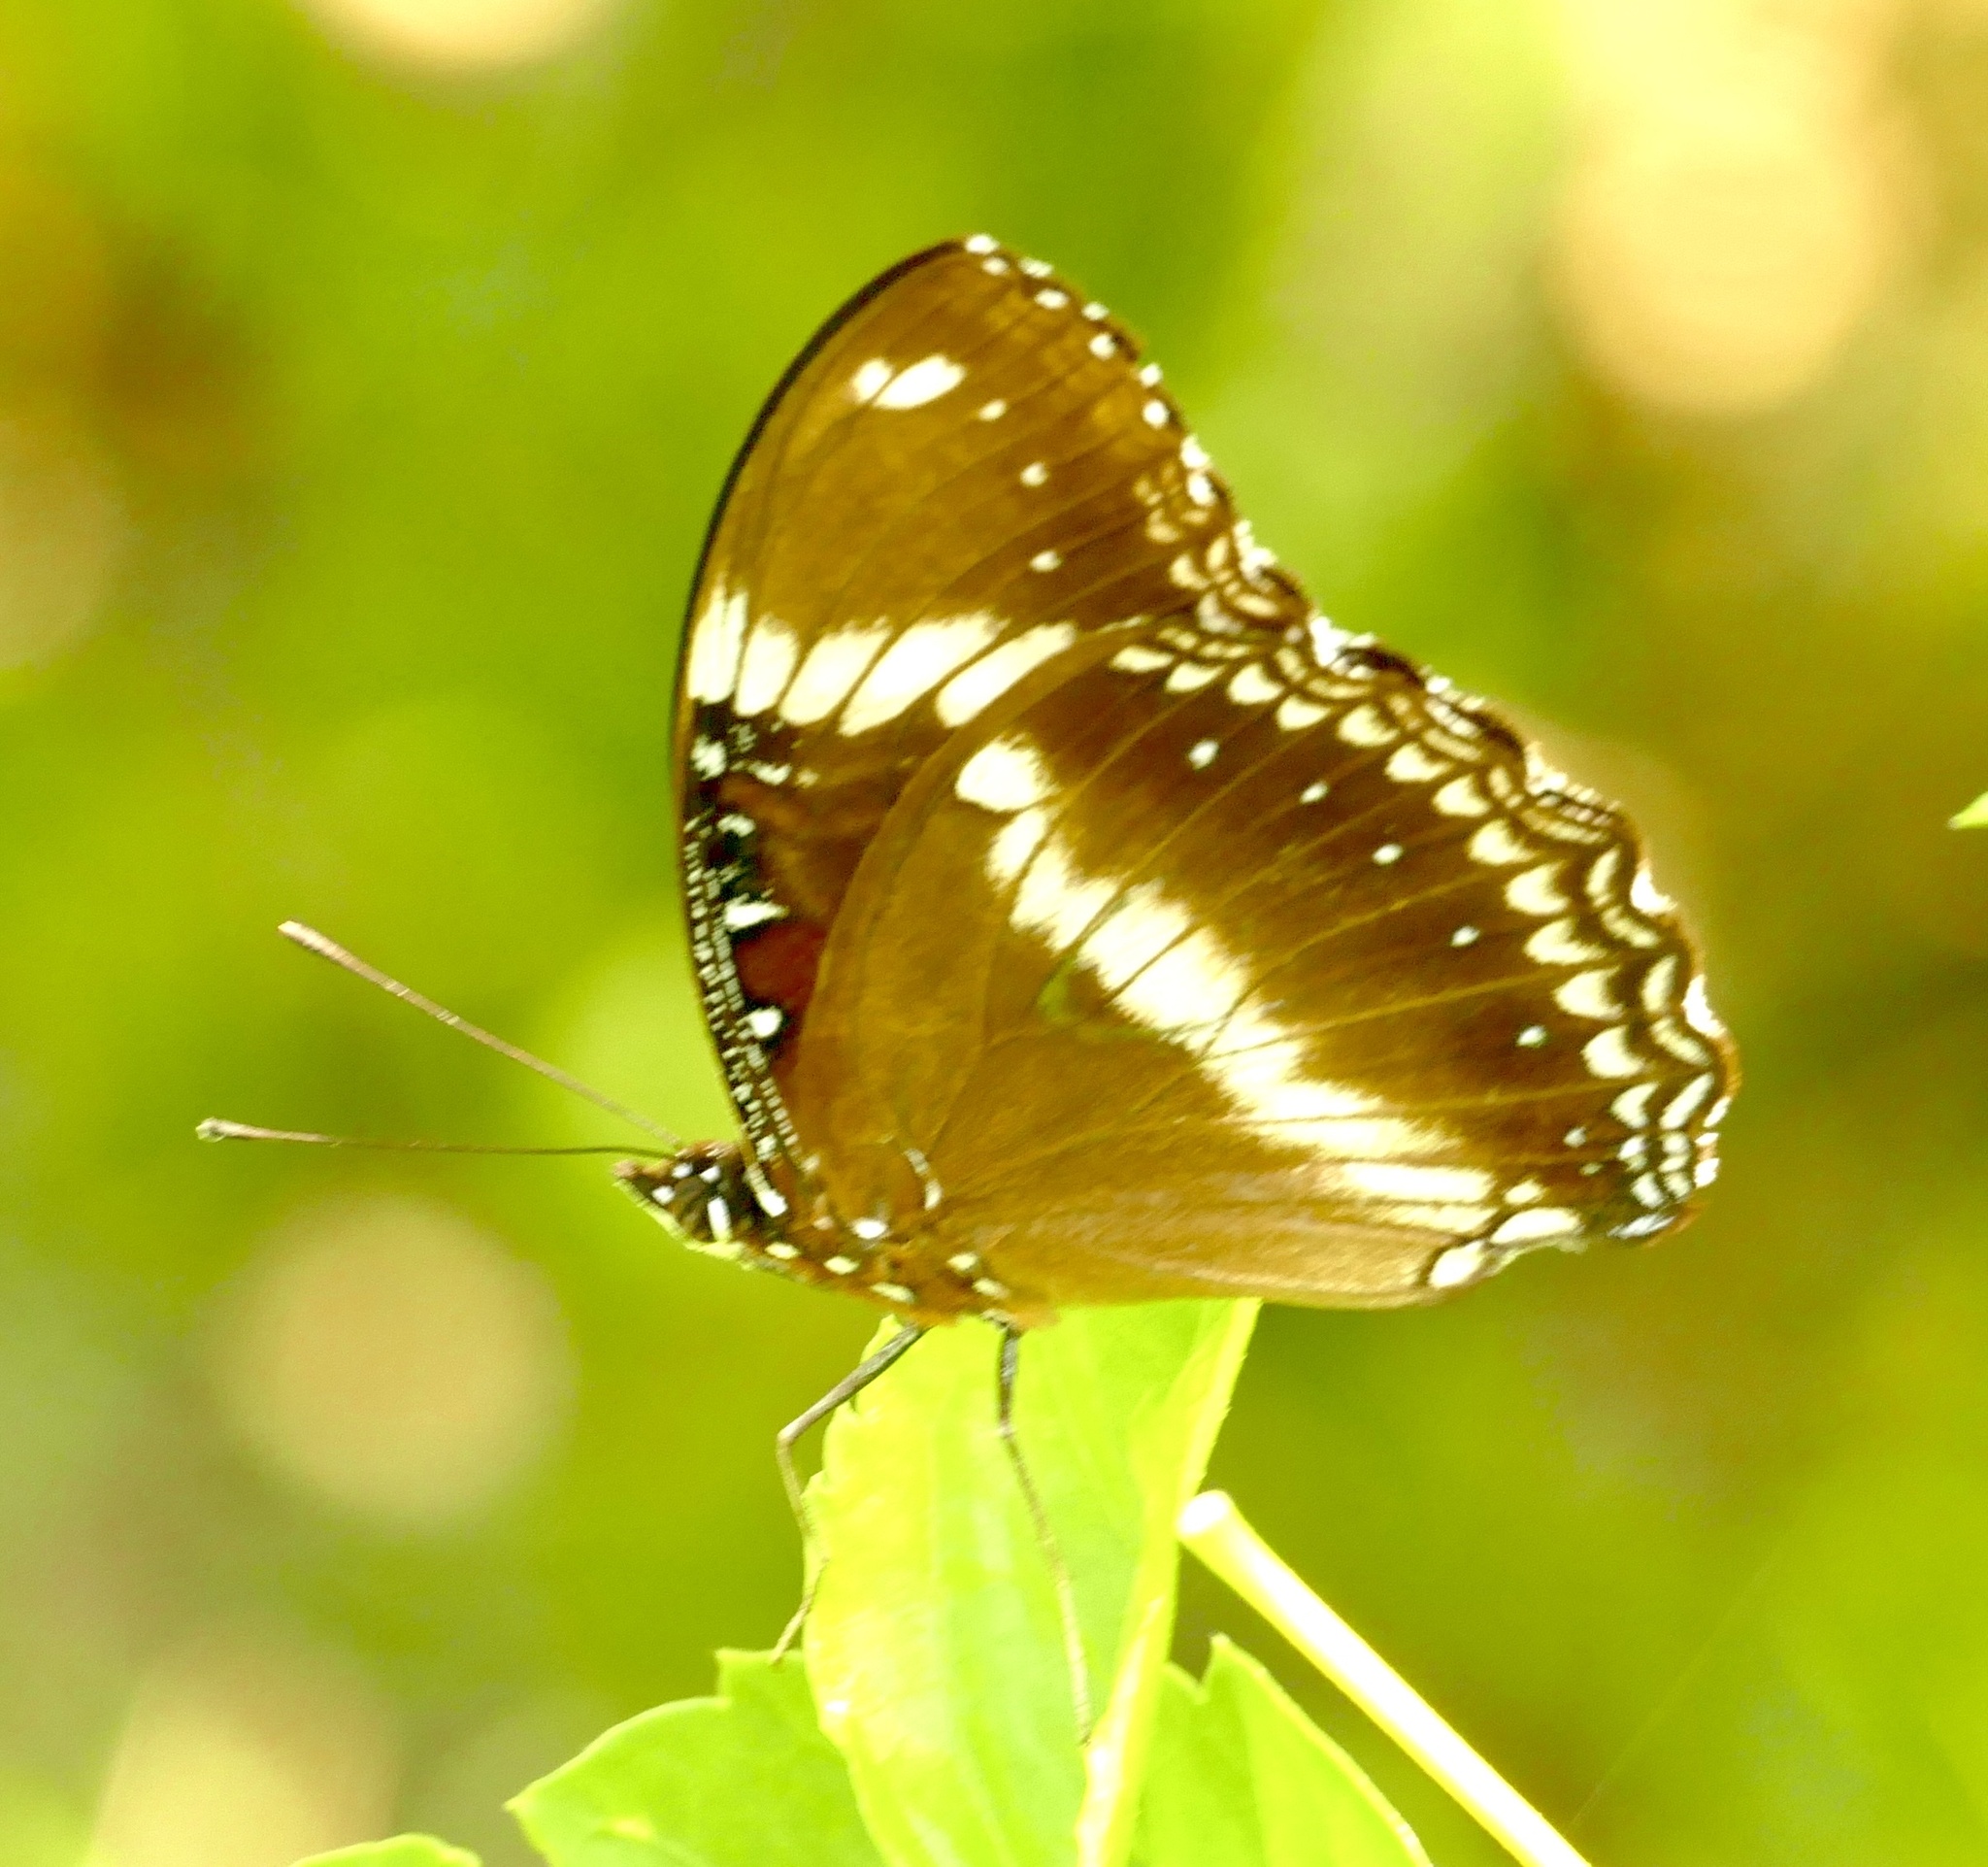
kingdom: Animalia
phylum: Arthropoda
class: Insecta
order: Lepidoptera
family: Nymphalidae
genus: Hypolimnas
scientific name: Hypolimnas bolina
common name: Great eggfly
